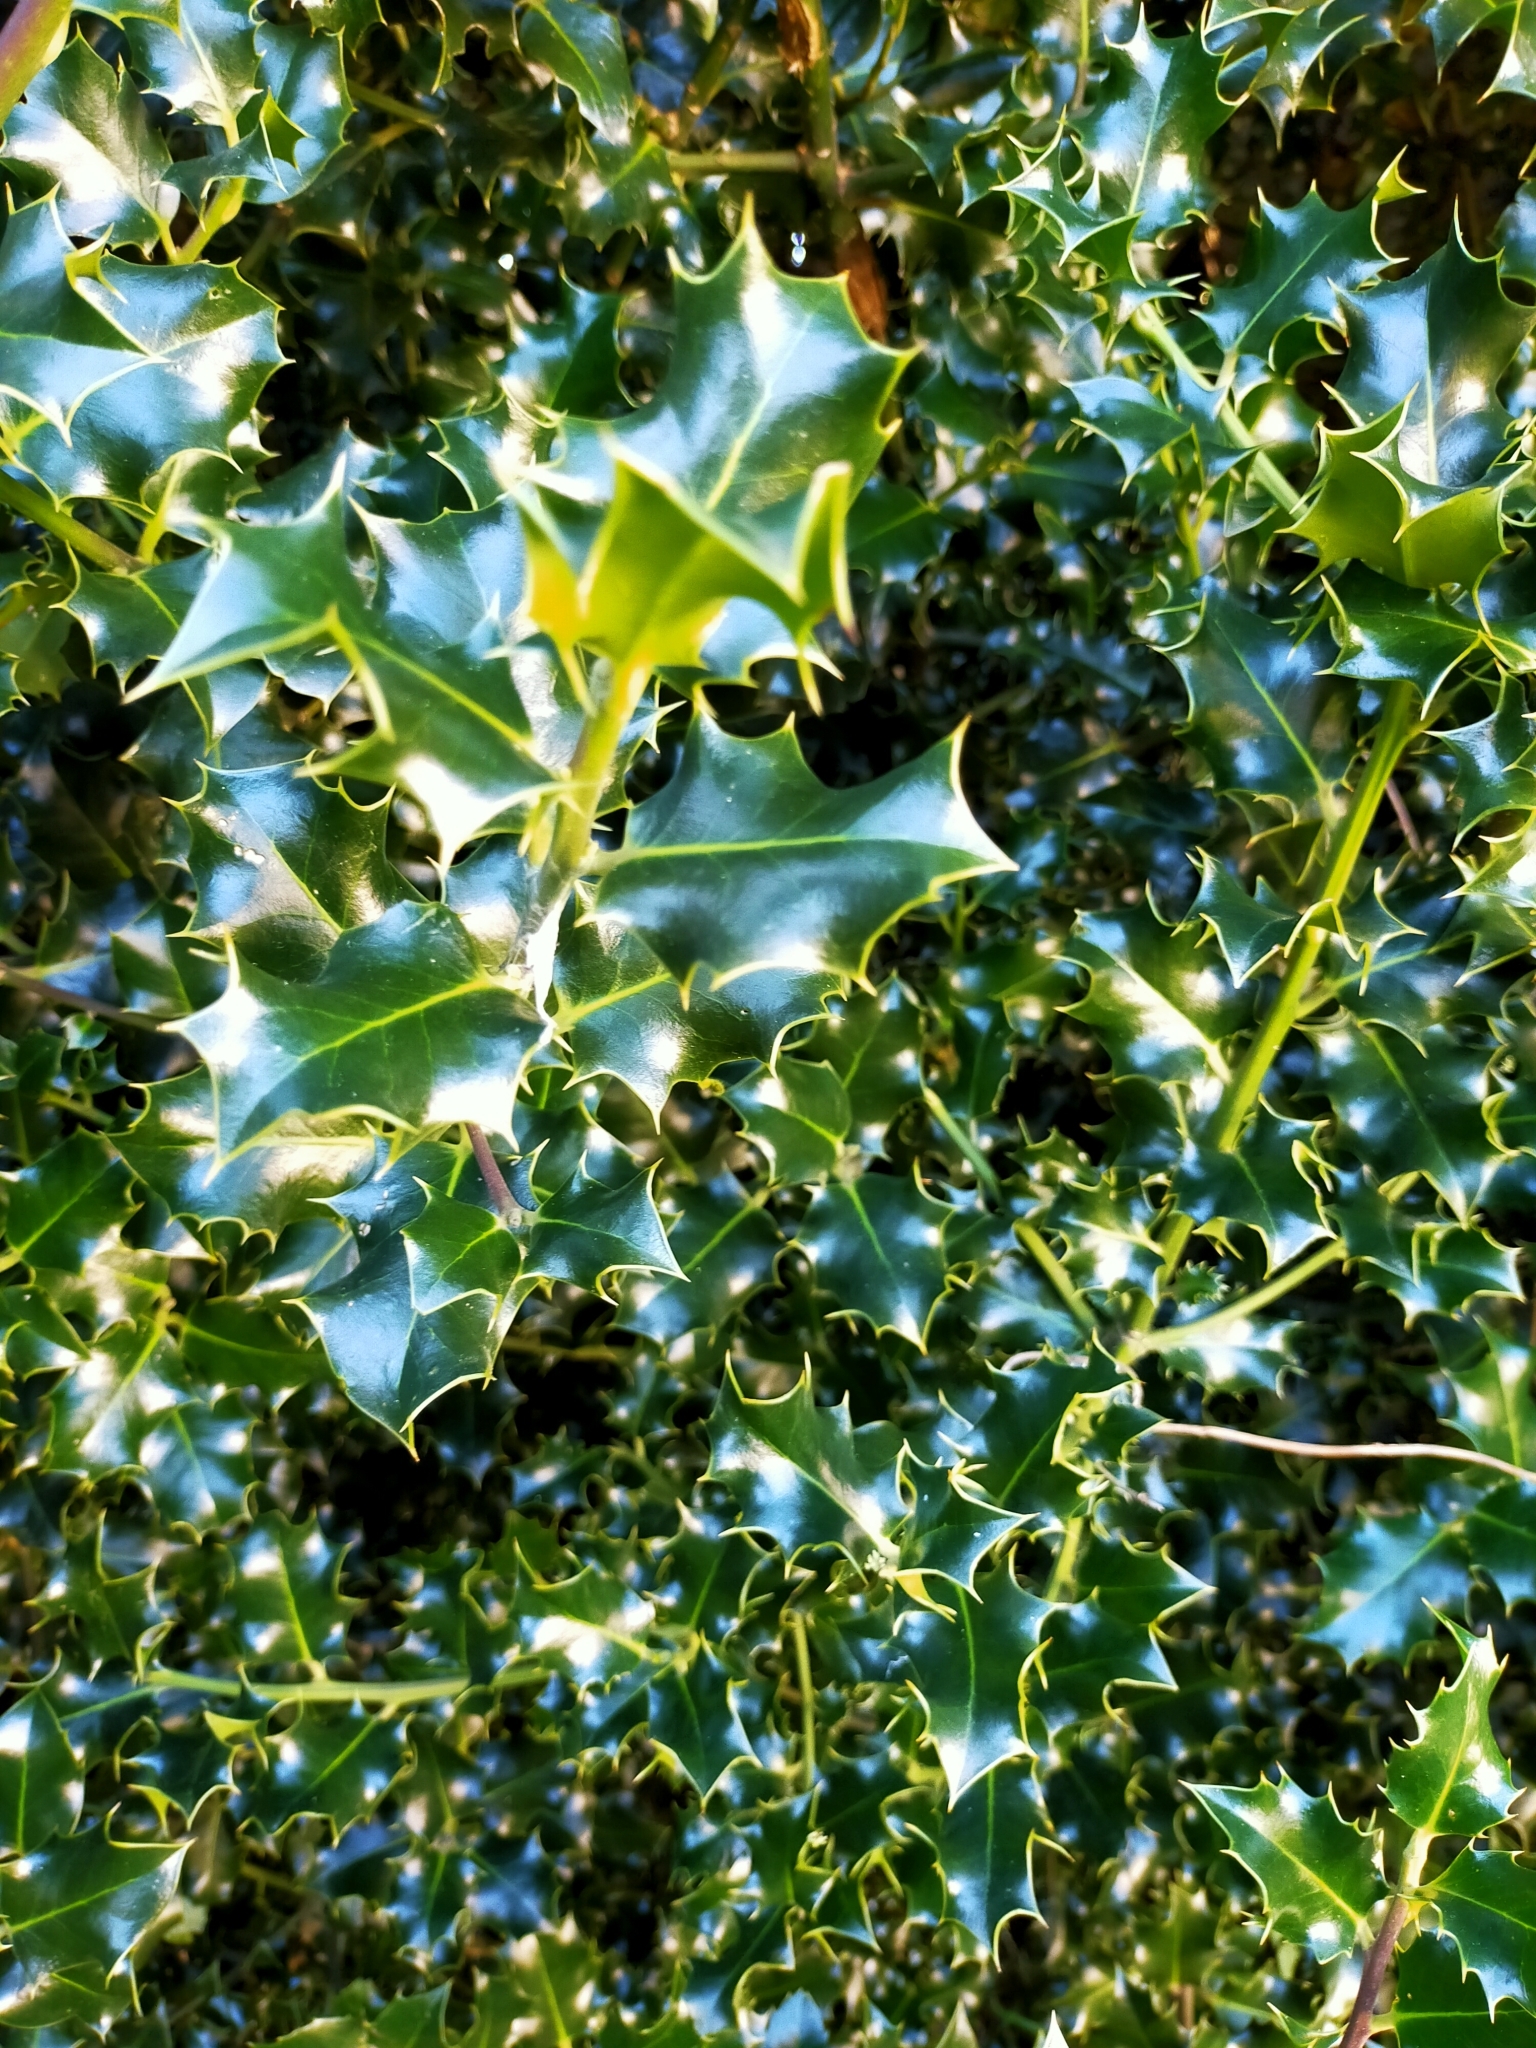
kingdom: Plantae
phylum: Tracheophyta
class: Magnoliopsida
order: Aquifoliales
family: Aquifoliaceae
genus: Ilex
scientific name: Ilex aquifolium
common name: English holly
